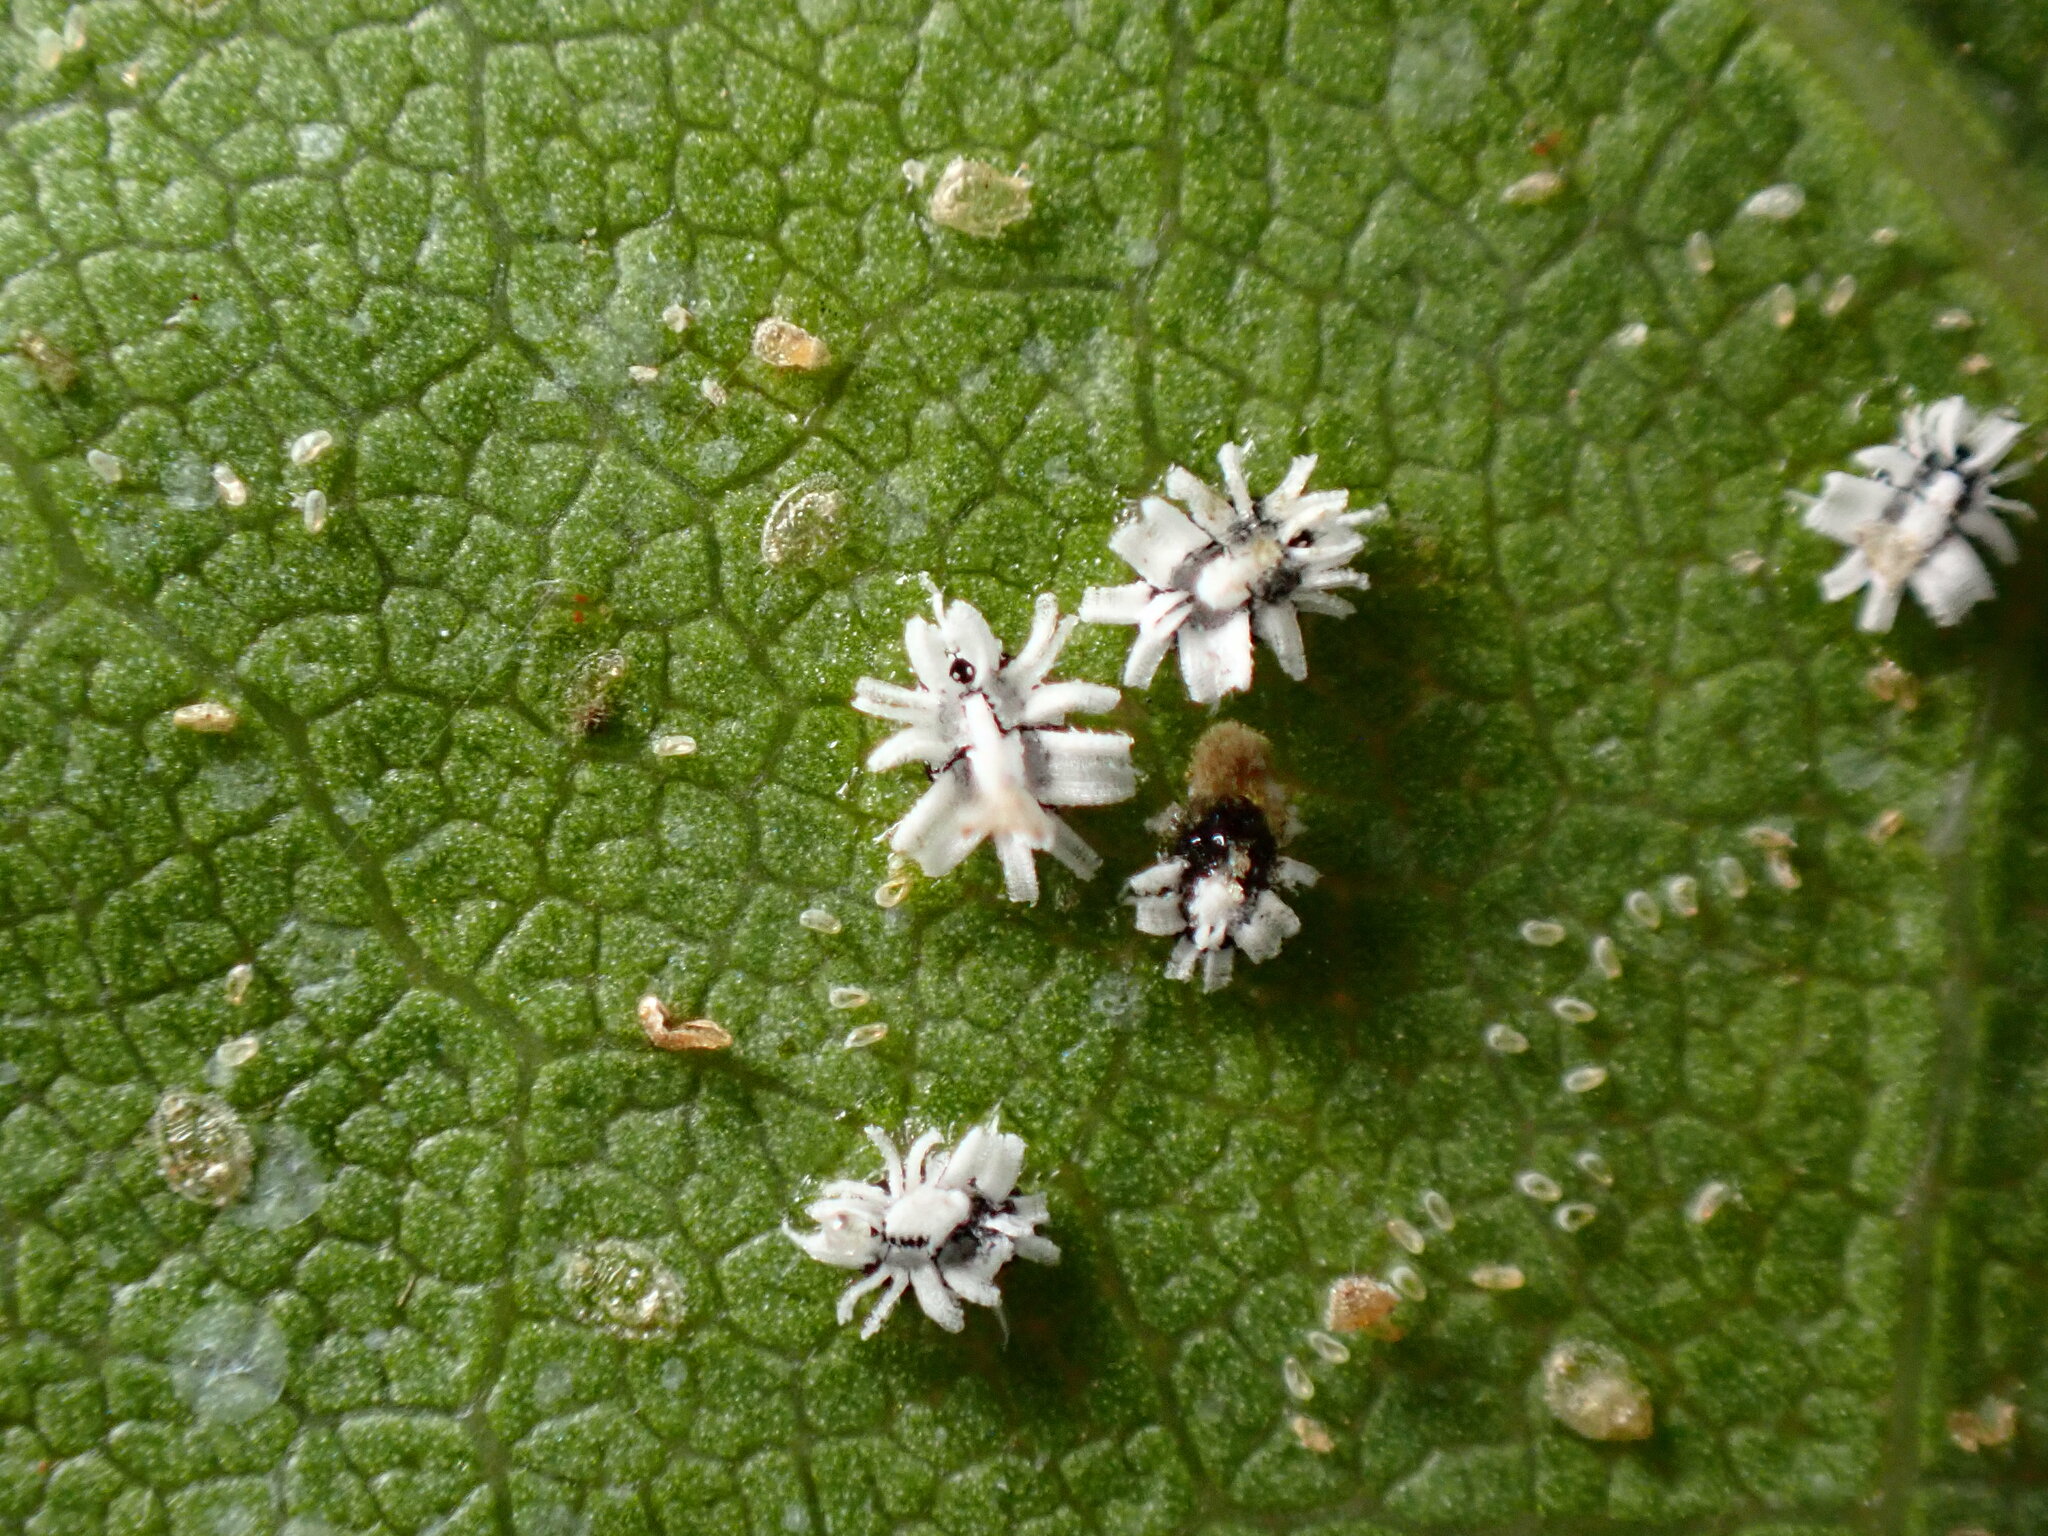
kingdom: Animalia
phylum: Arthropoda
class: Insecta
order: Hemiptera
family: Aleyrodidae
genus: Aleuroplatus
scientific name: Aleuroplatus coronata
